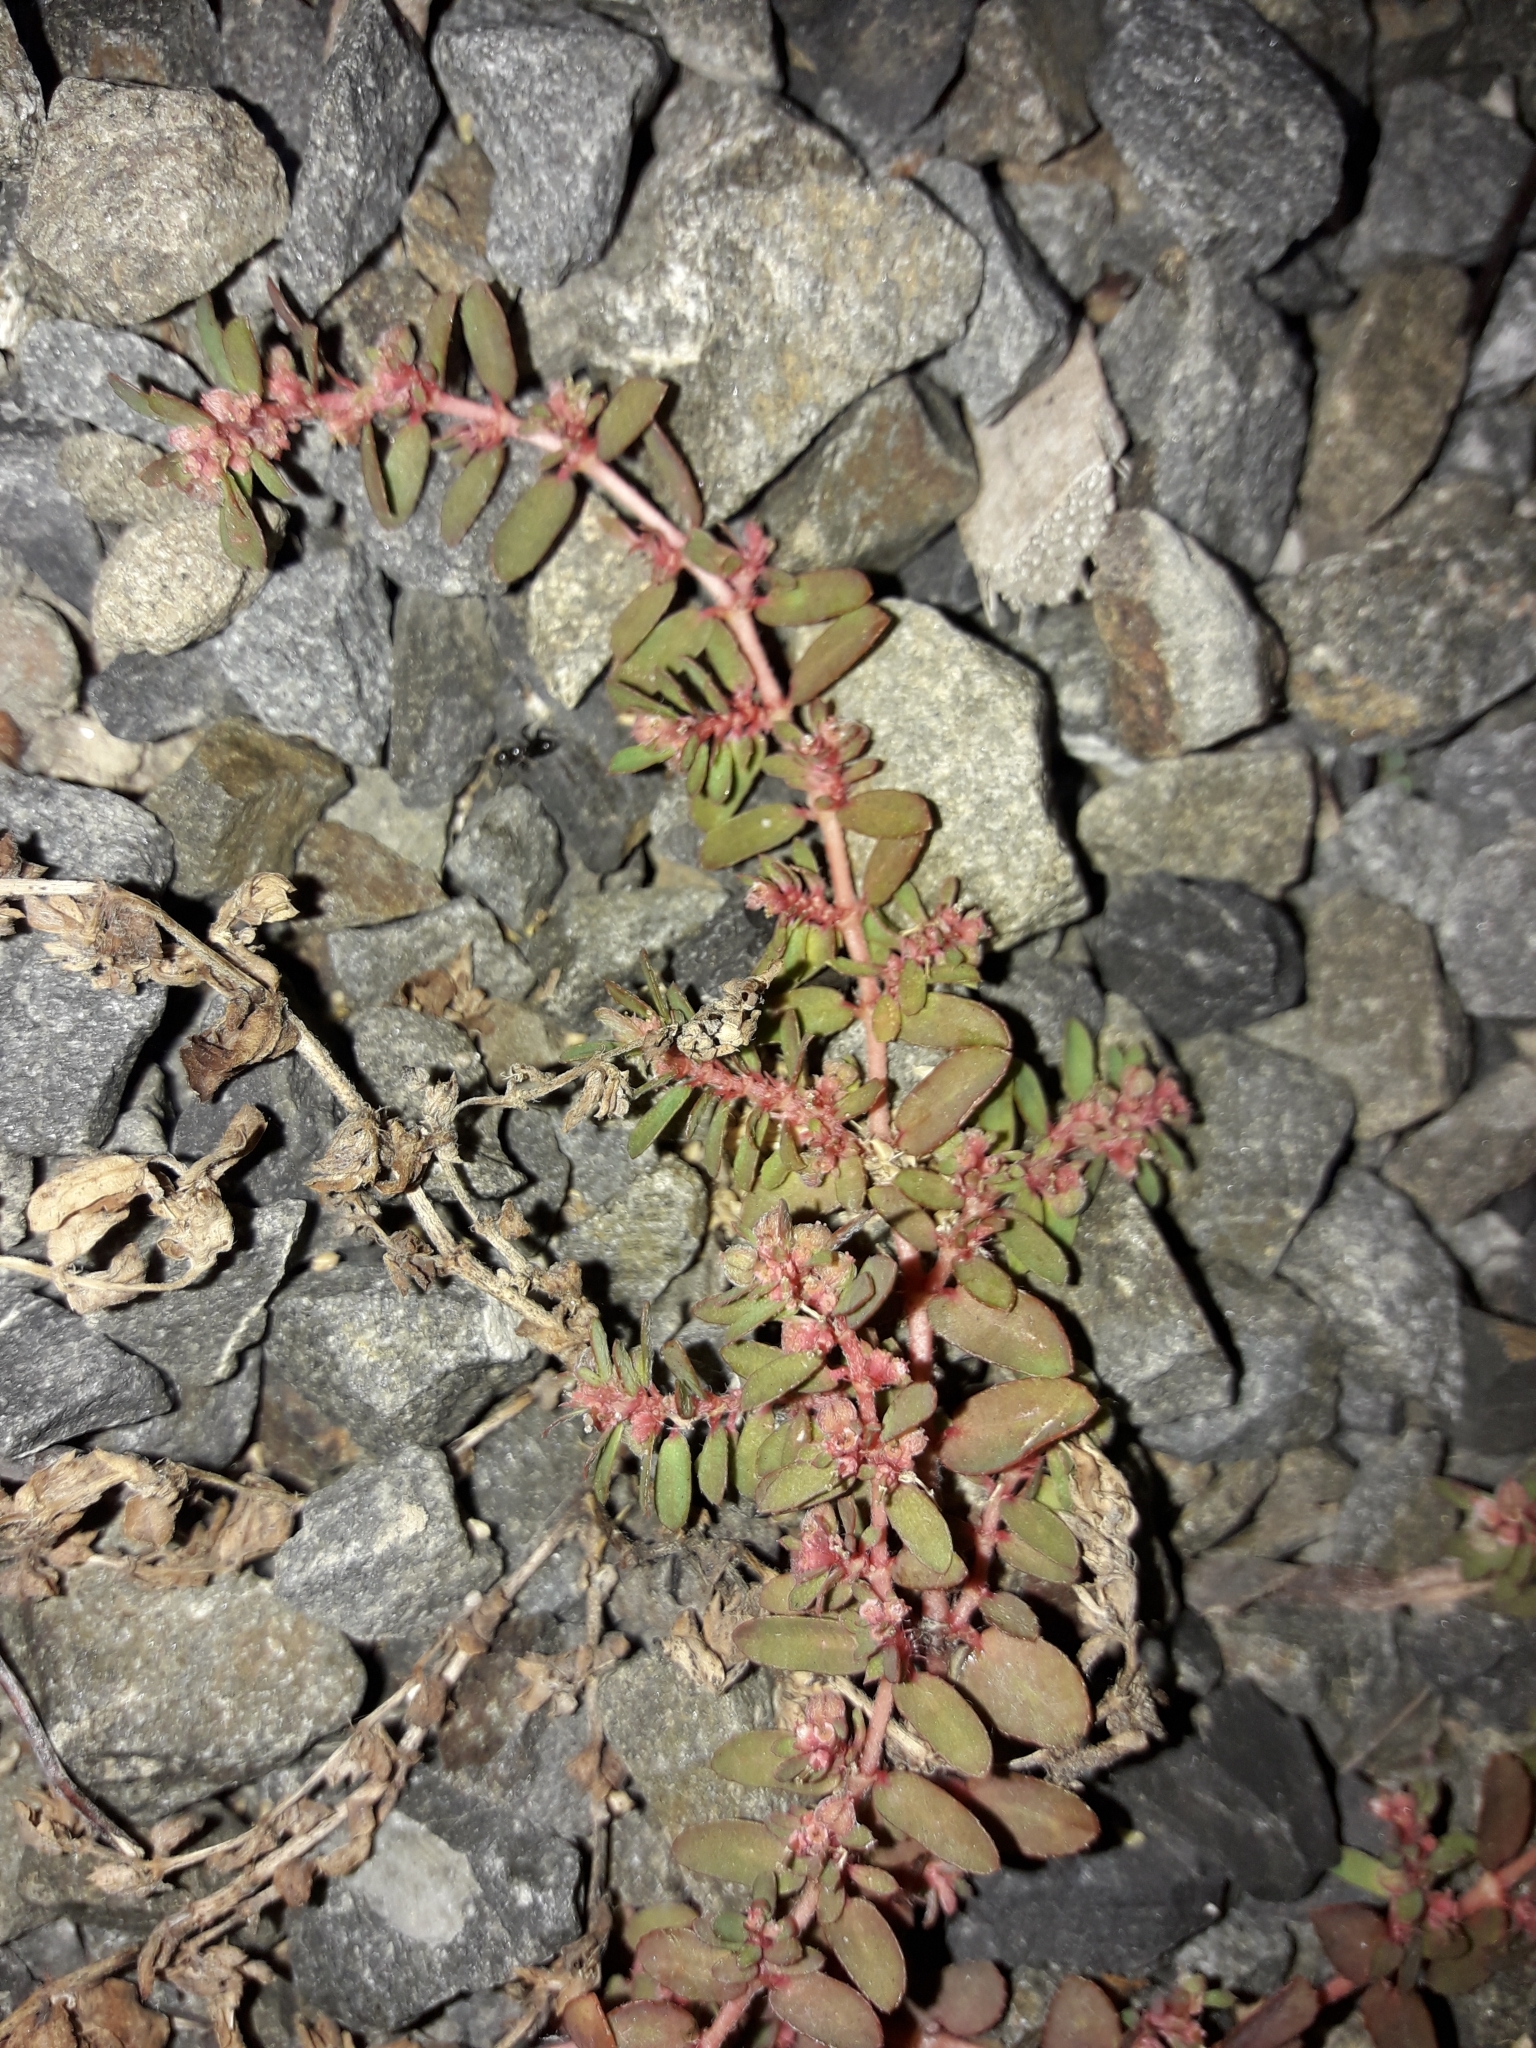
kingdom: Plantae
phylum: Tracheophyta
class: Magnoliopsida
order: Malpighiales
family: Euphorbiaceae
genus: Euphorbia
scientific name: Euphorbia maculata
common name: Spotted spurge
